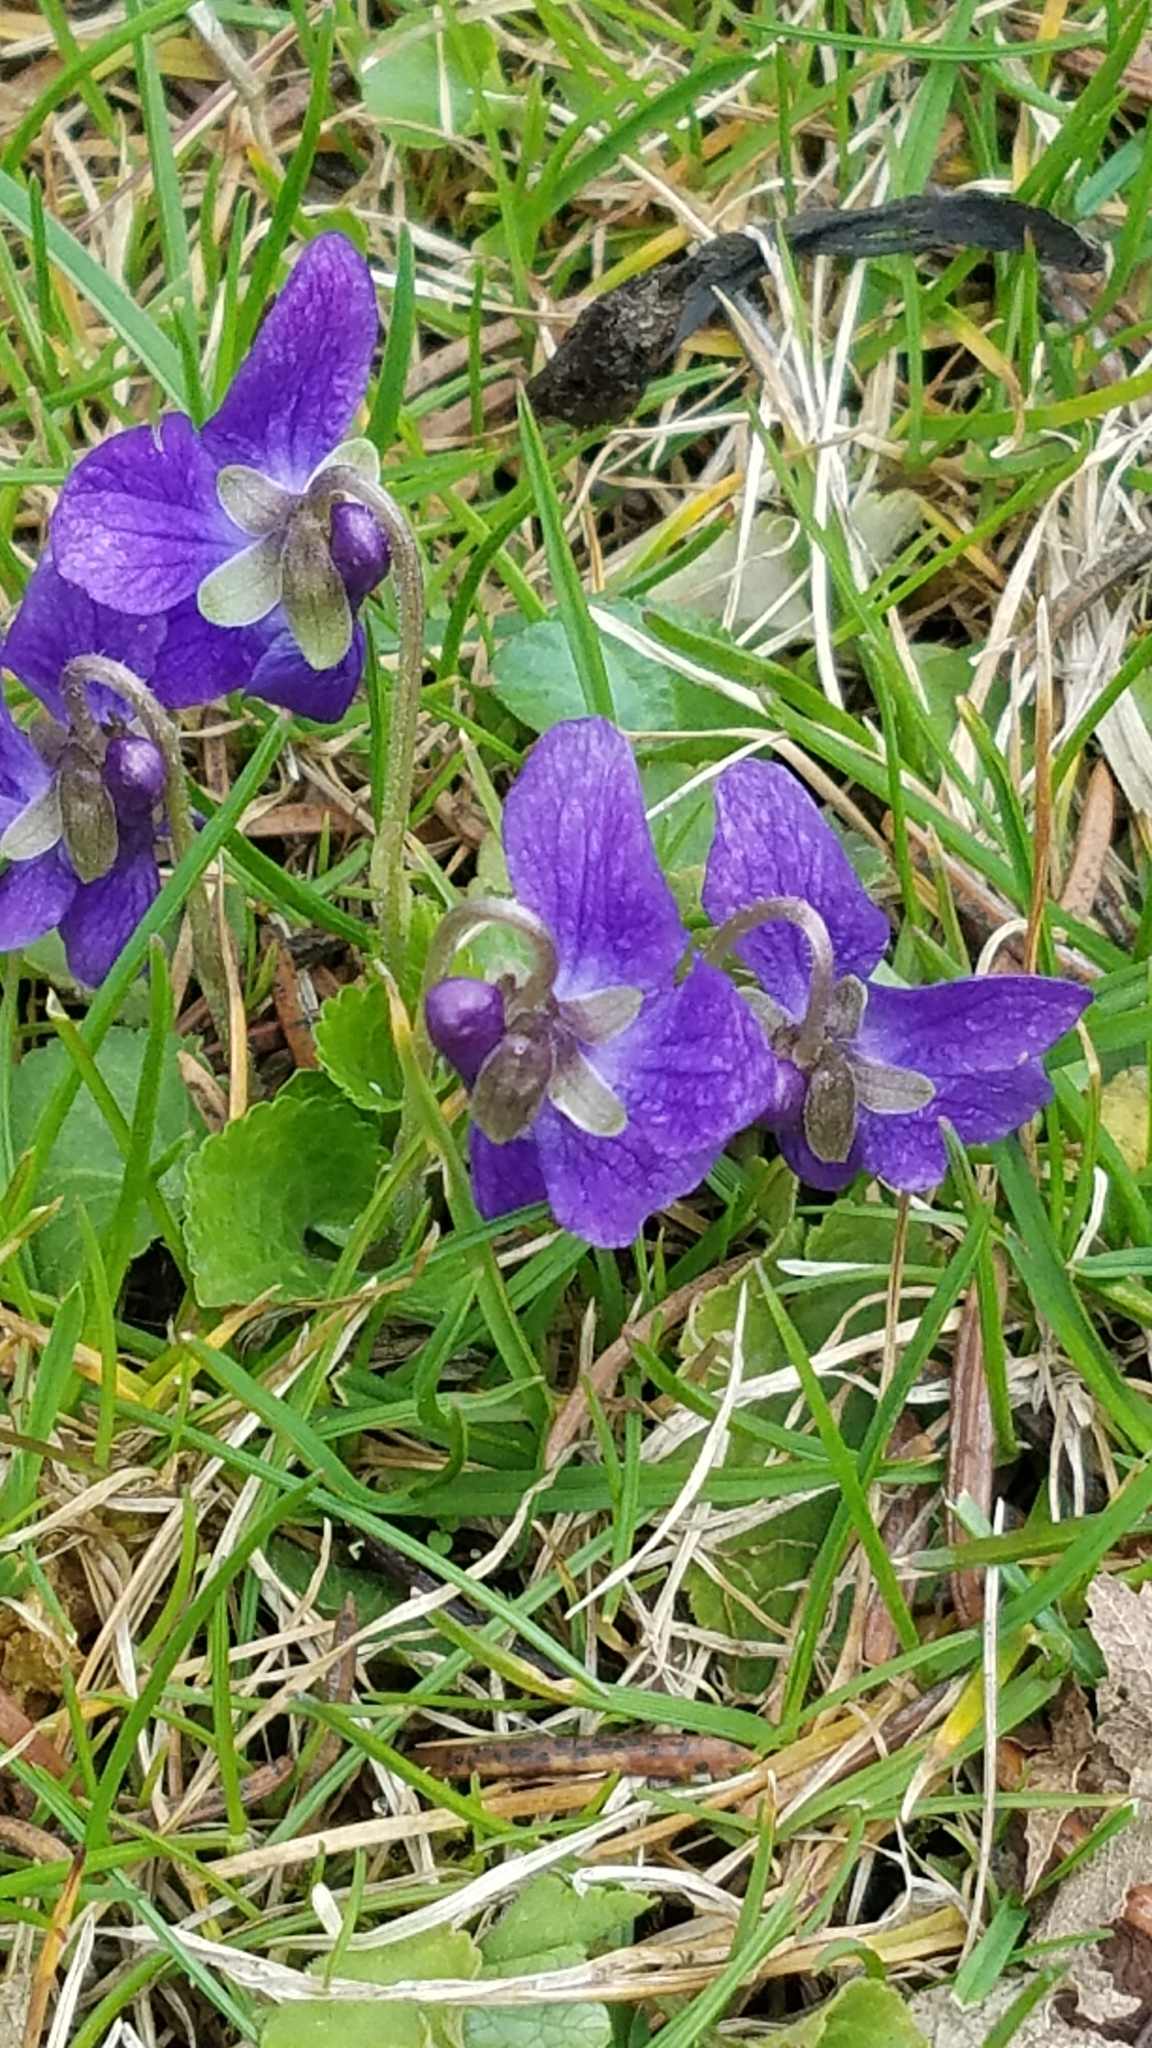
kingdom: Plantae
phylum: Tracheophyta
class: Magnoliopsida
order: Malpighiales
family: Violaceae
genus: Viola
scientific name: Viola odorata
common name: Sweet violet
